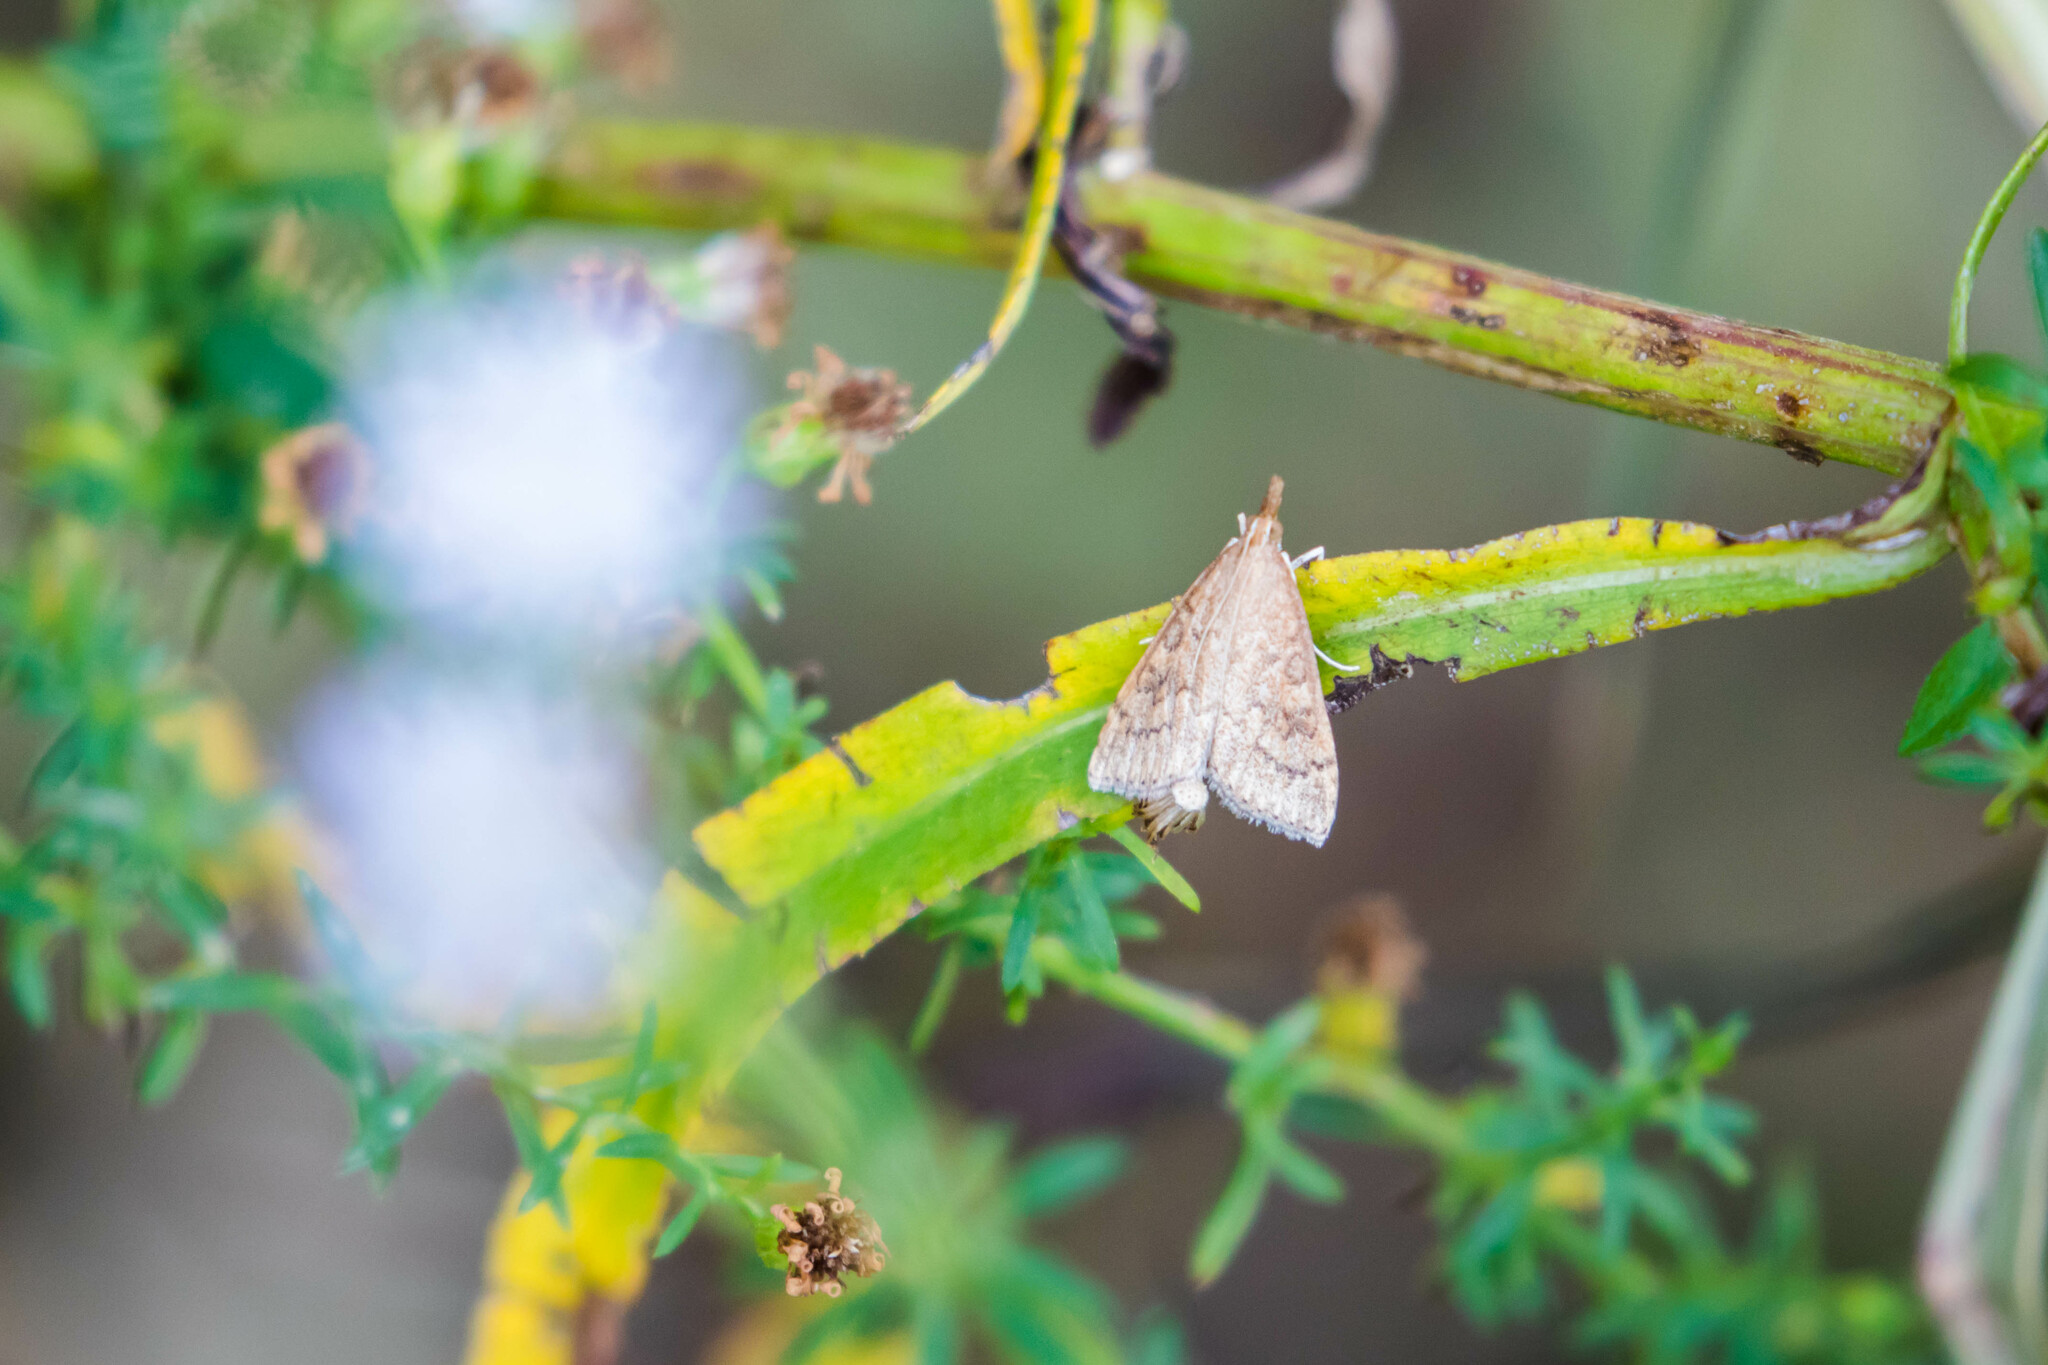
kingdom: Animalia
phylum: Arthropoda
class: Insecta
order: Lepidoptera
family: Crambidae
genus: Udea
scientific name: Udea rubigalis
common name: Celery leaftier moth
